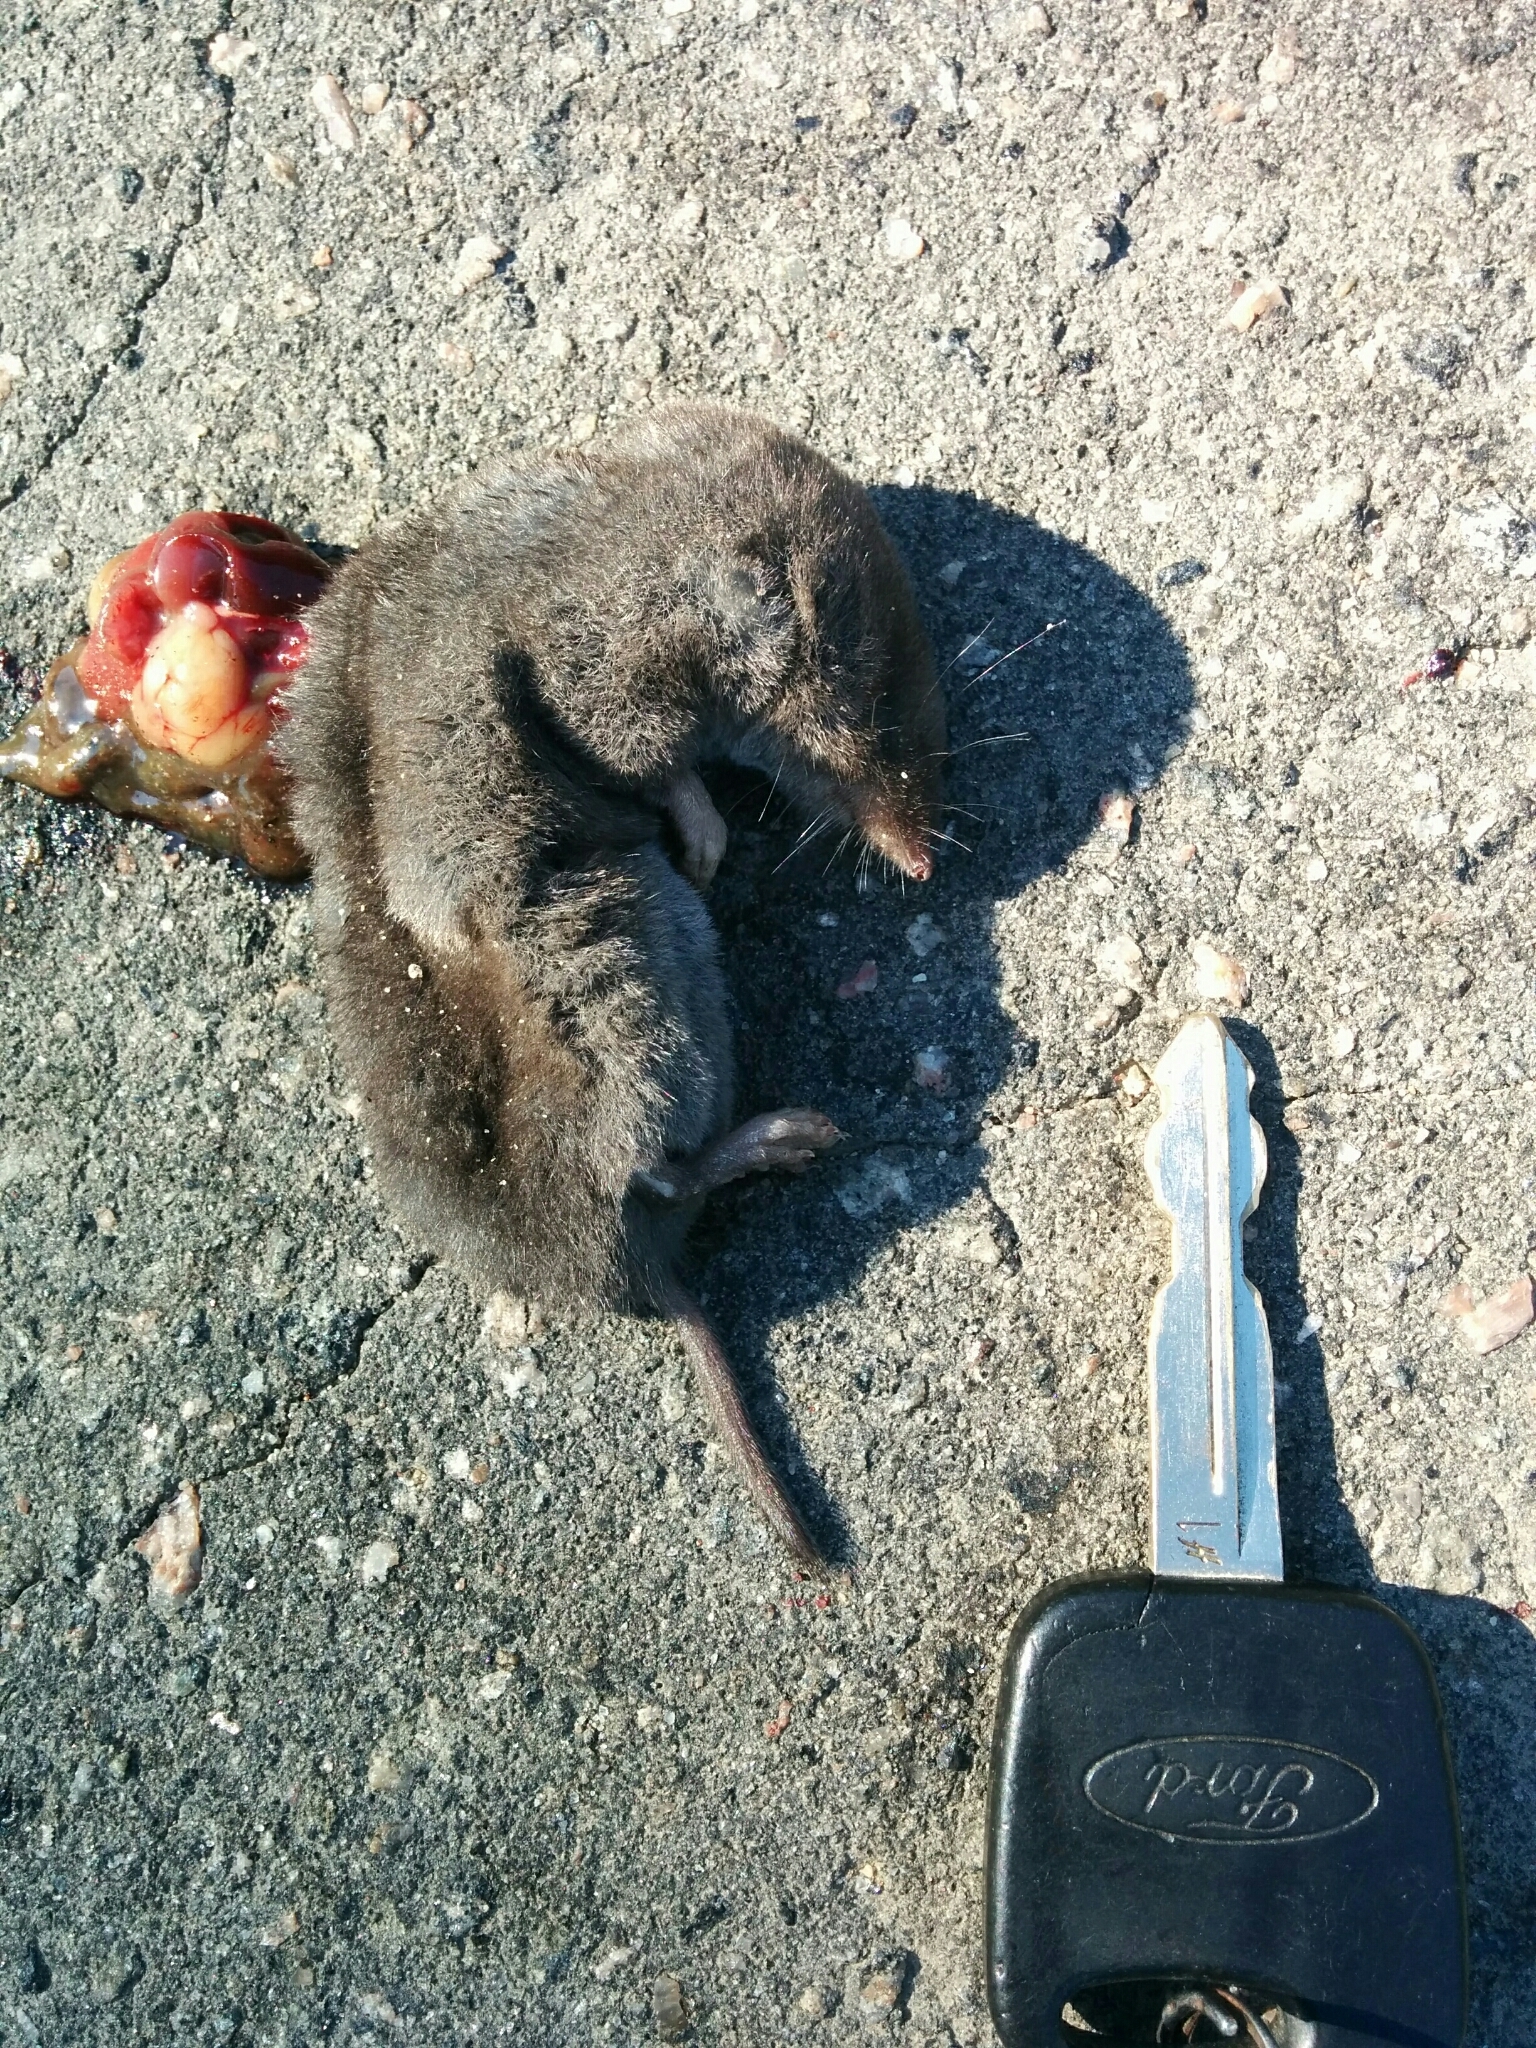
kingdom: Animalia
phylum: Chordata
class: Mammalia
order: Soricomorpha
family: Soricidae
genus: Blarina
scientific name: Blarina brevicauda
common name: Northern short-tailed shrew
